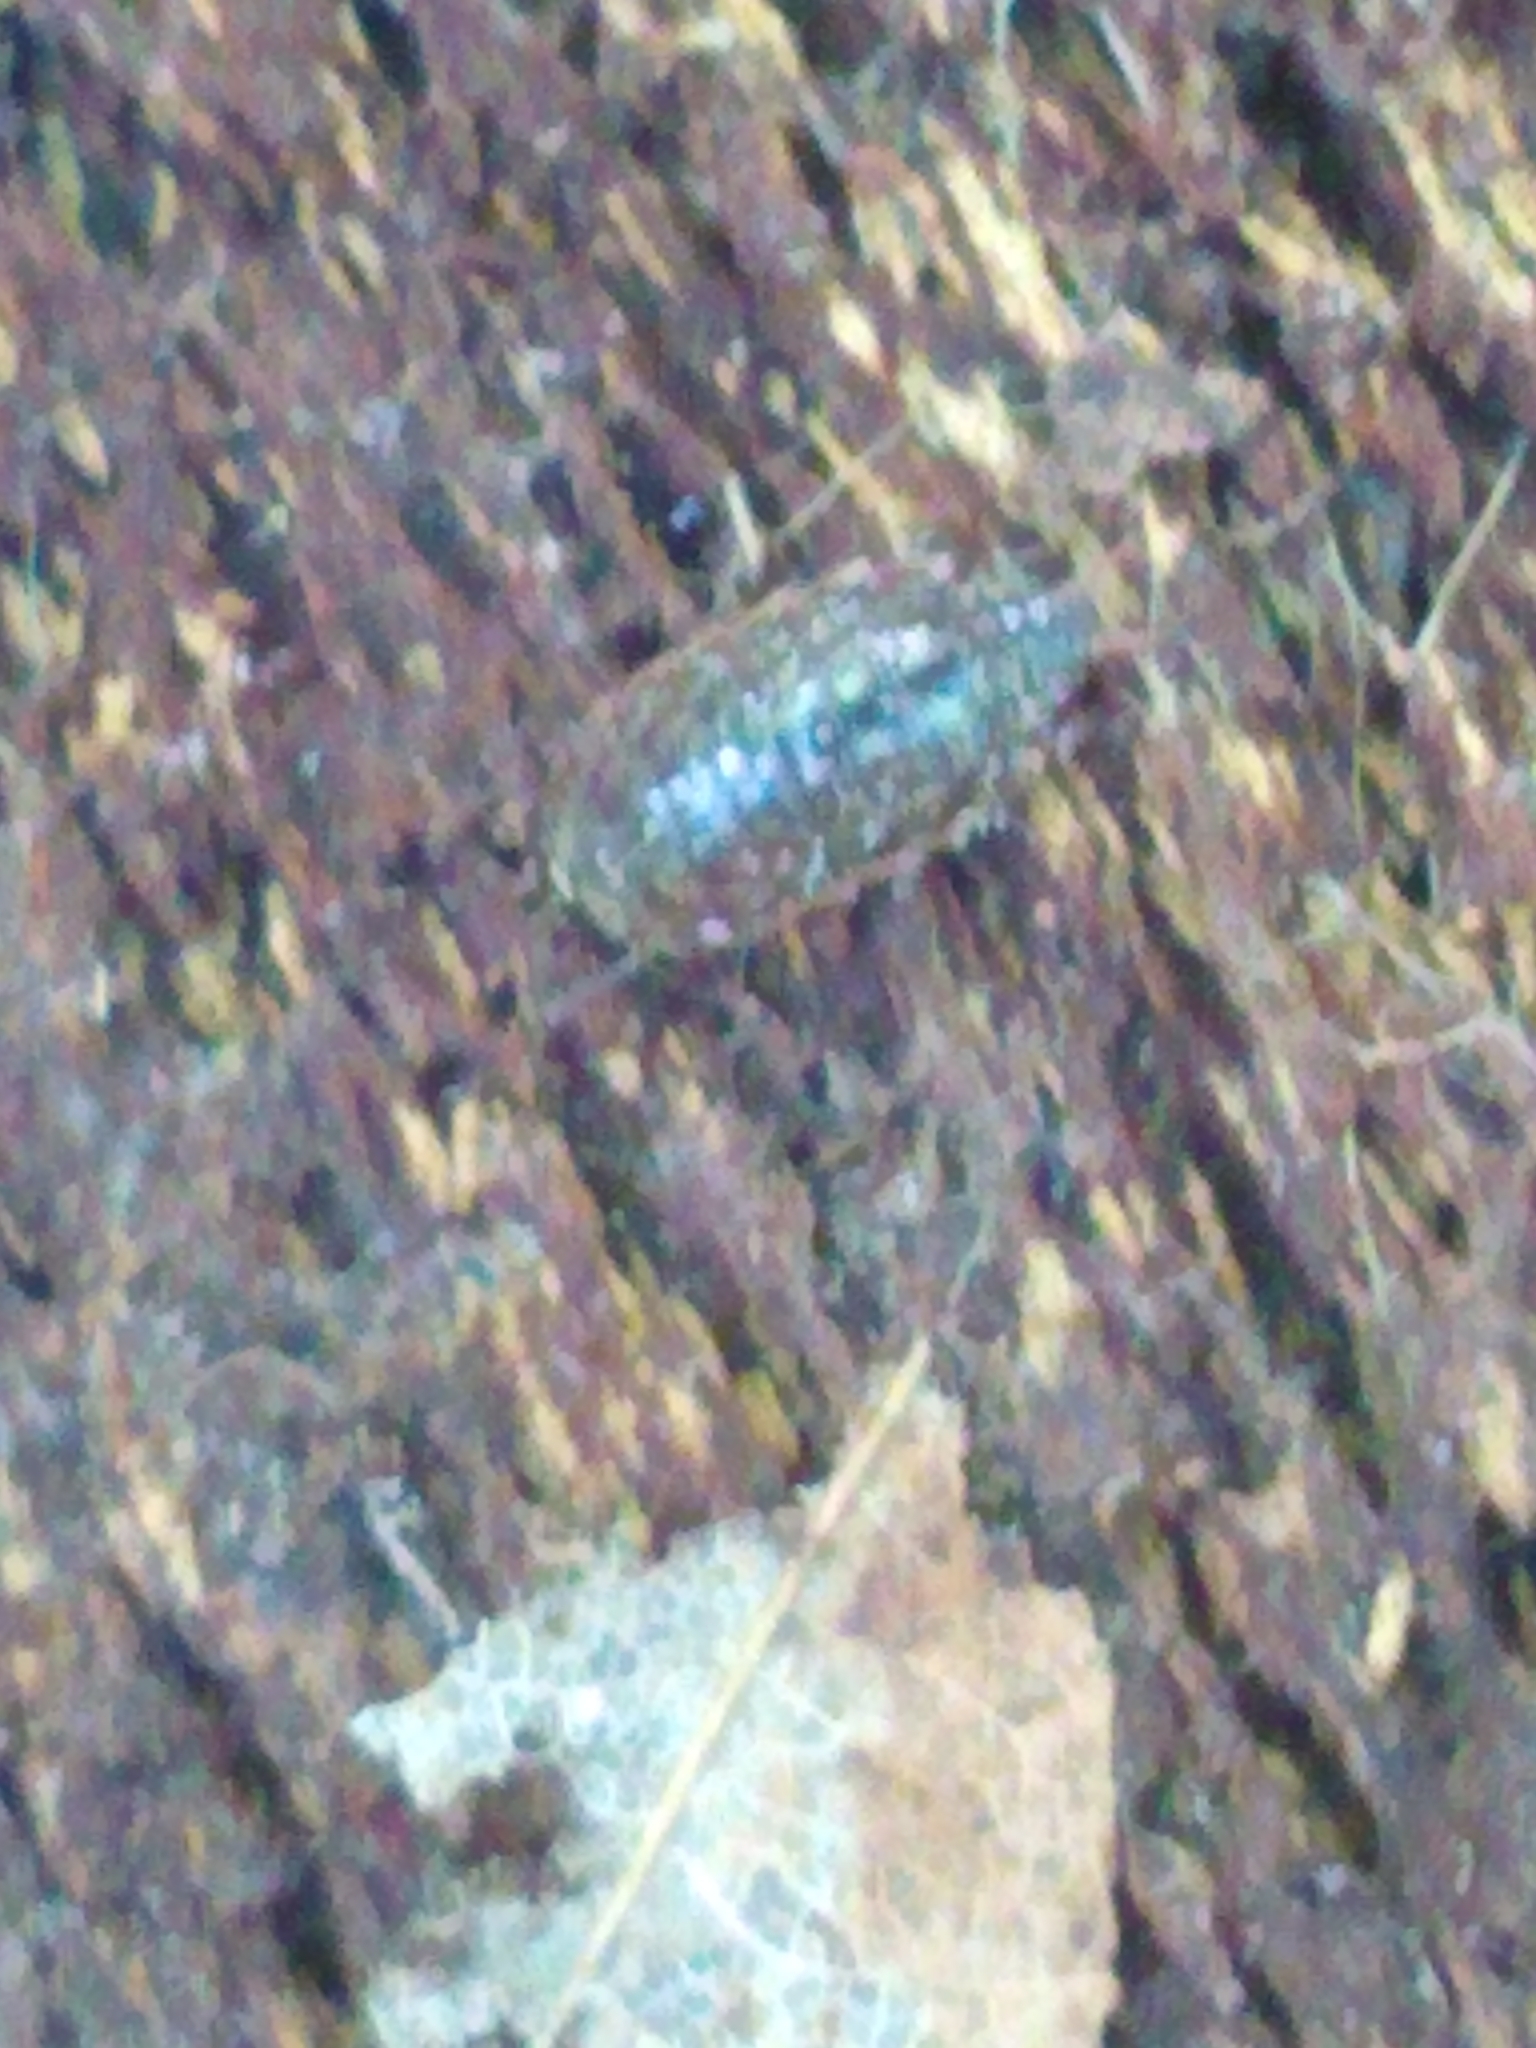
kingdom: Animalia
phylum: Arthropoda
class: Malacostraca
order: Isopoda
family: Philosciidae
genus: Philoscia
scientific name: Philoscia muscorum
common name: Common striped woodlouse
